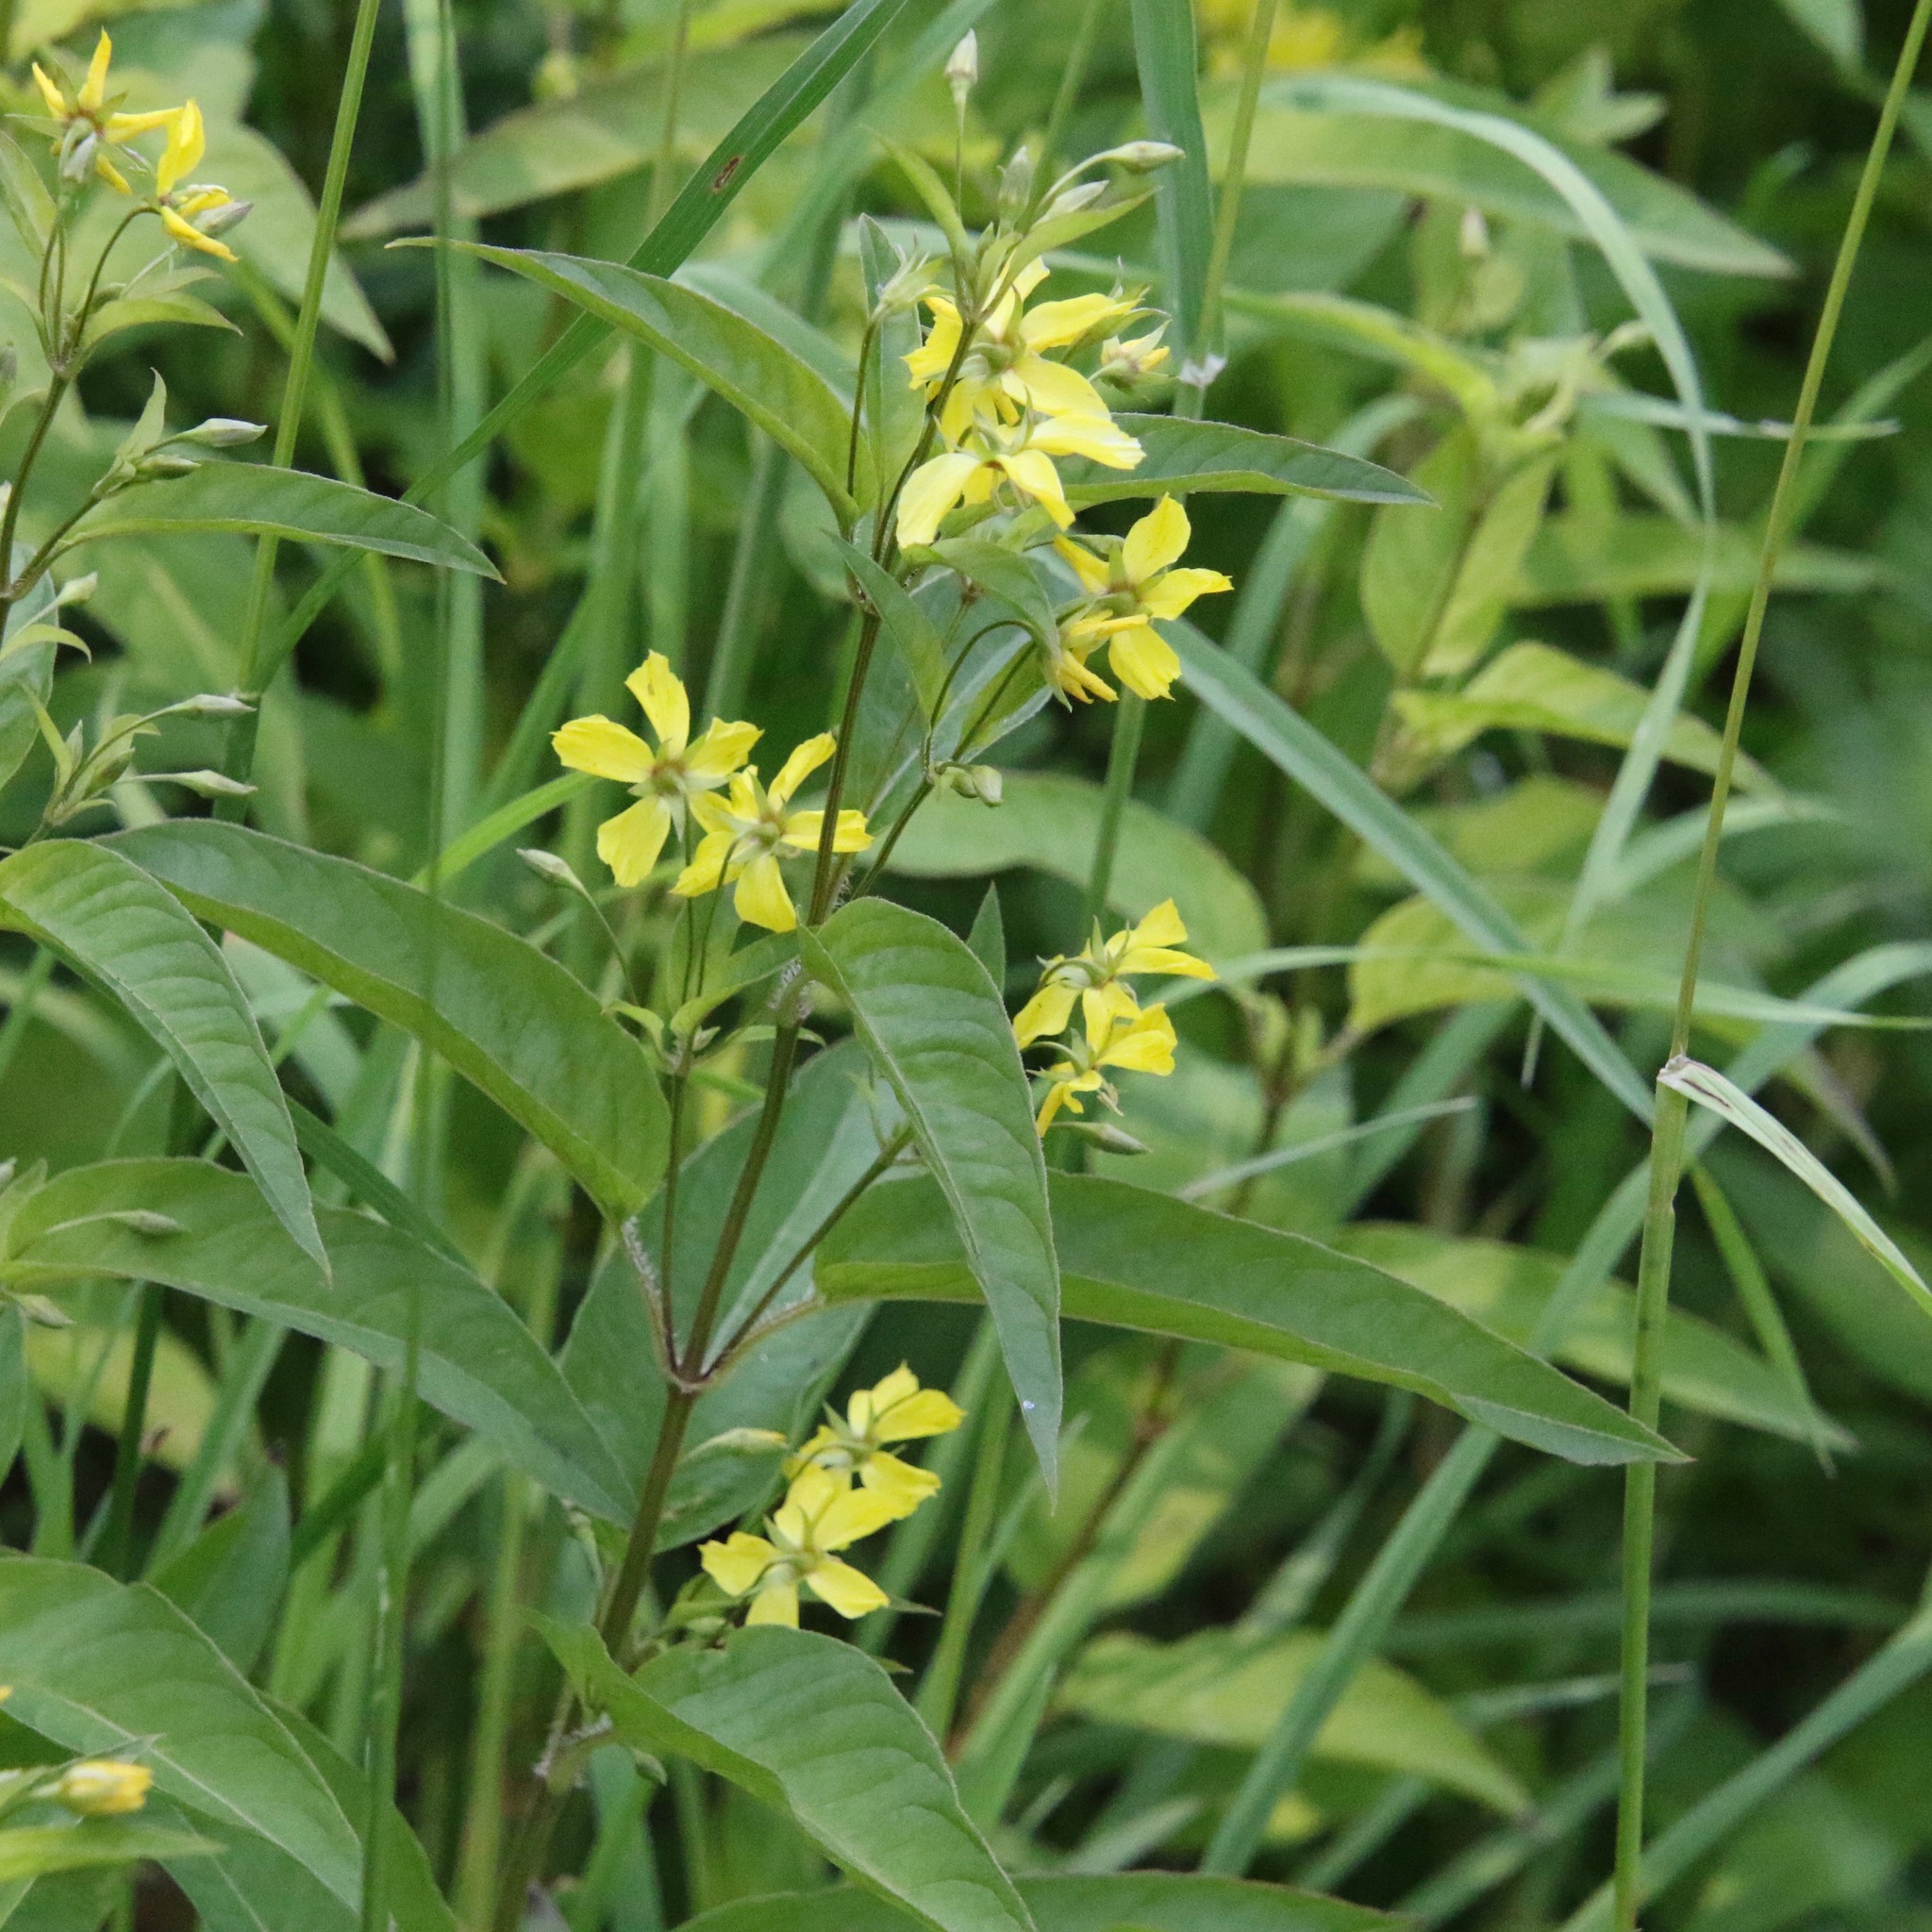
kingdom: Plantae
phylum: Tracheophyta
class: Magnoliopsida
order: Ericales
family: Primulaceae
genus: Lysimachia
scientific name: Lysimachia ciliata
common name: Fringed loosestrife
